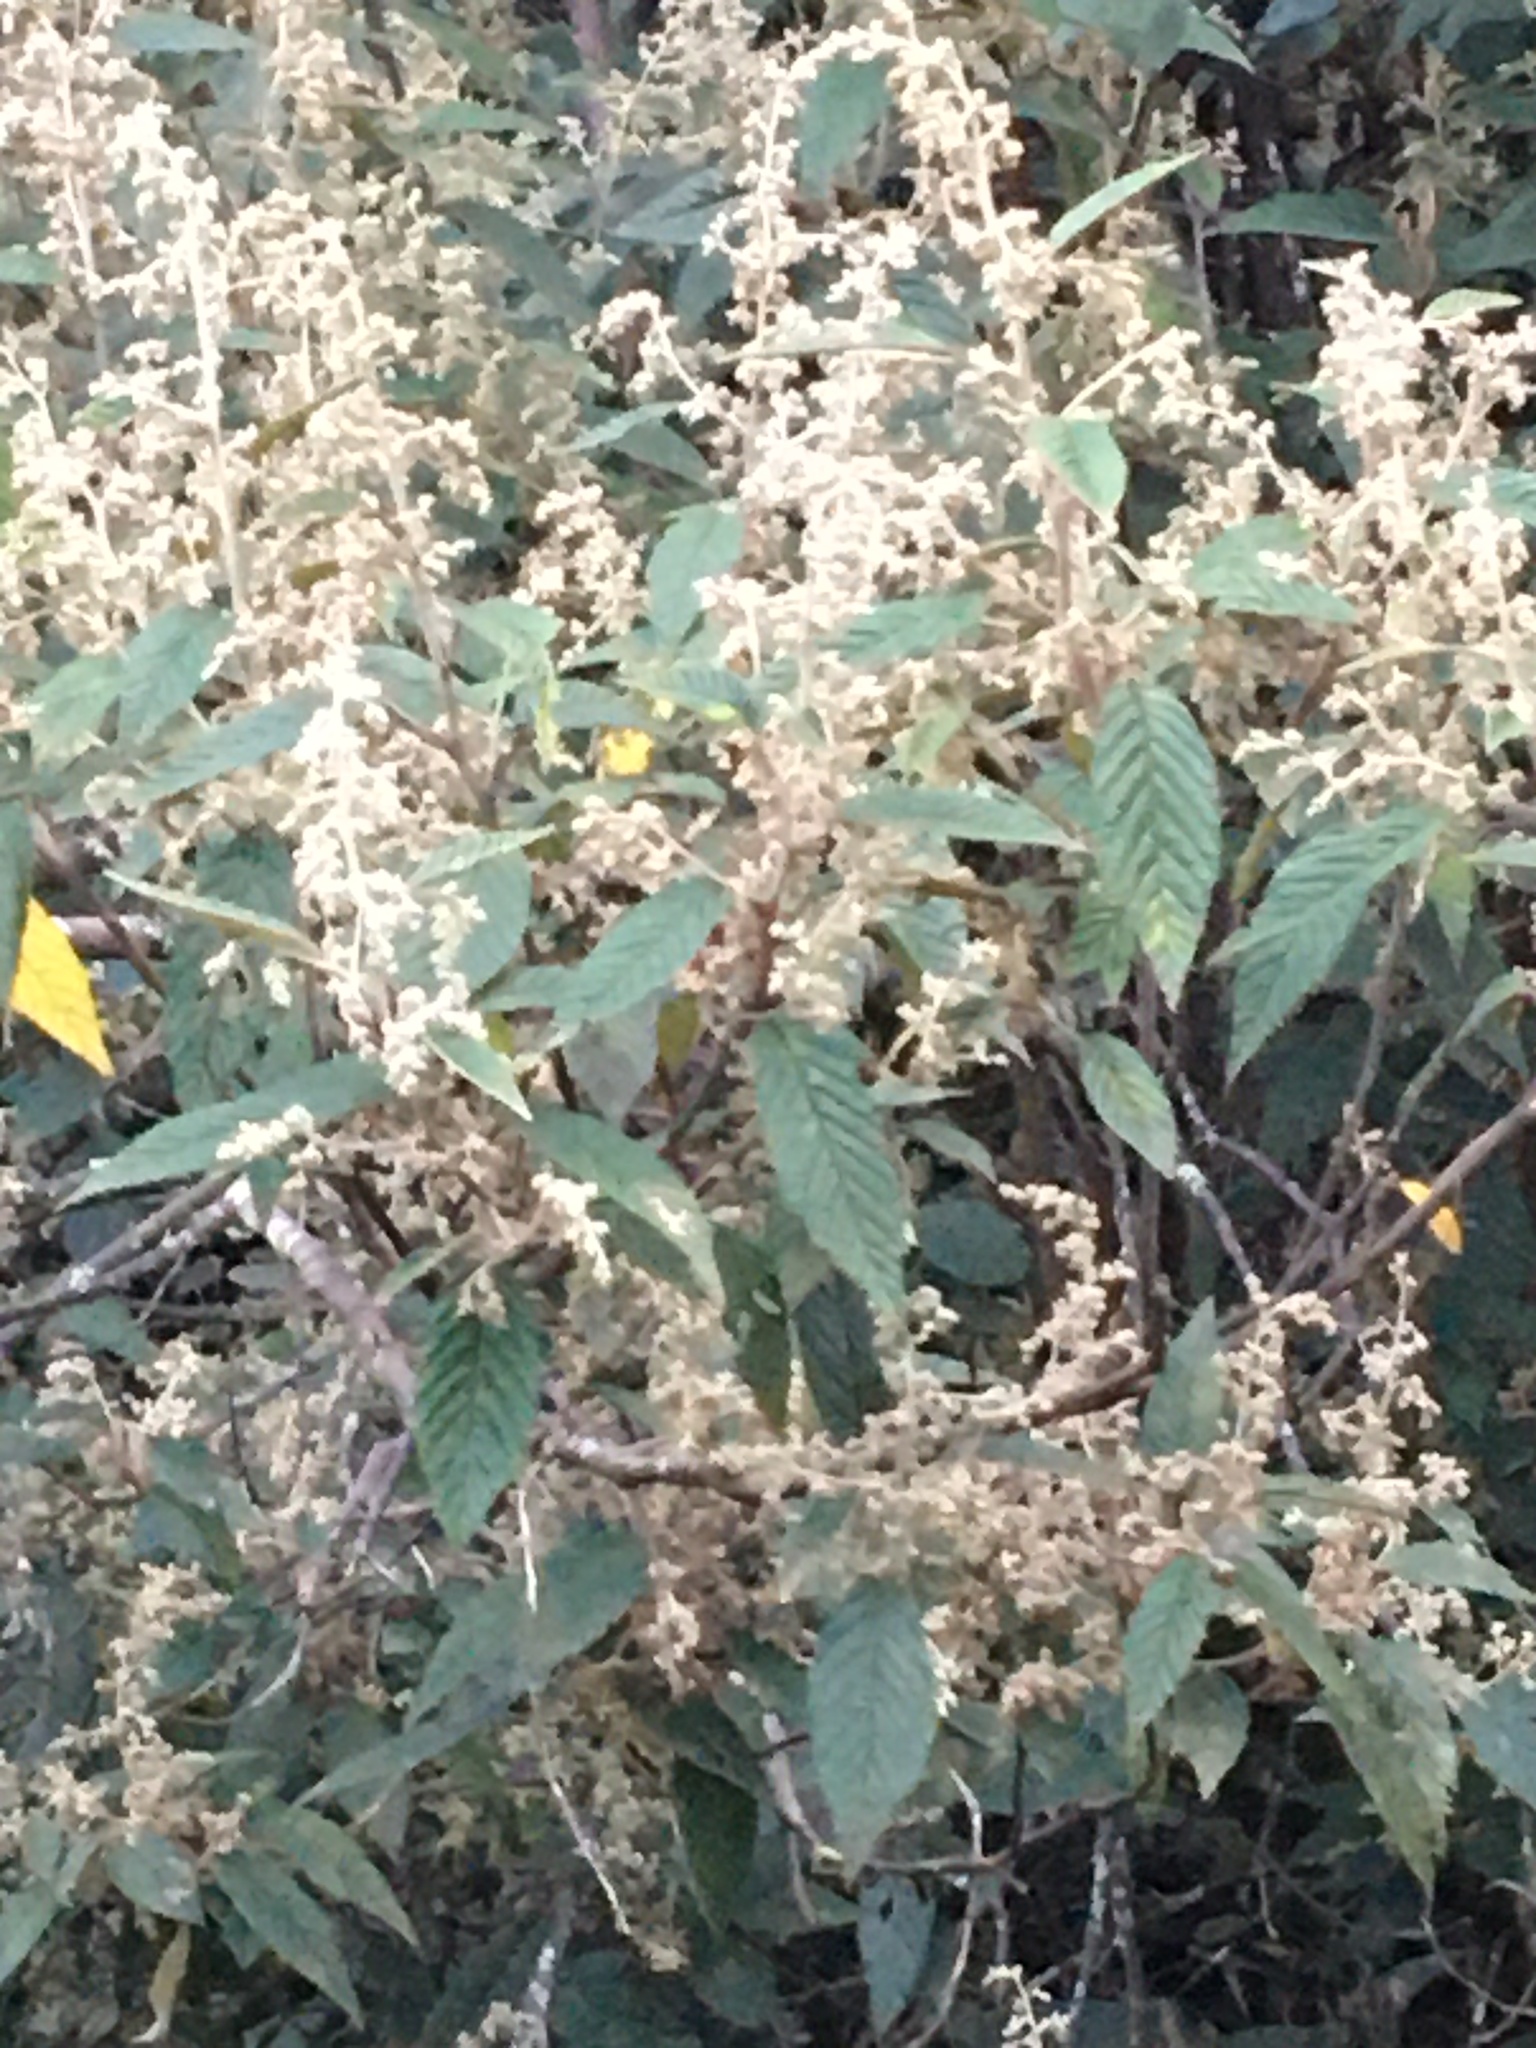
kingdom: Plantae
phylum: Tracheophyta
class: Magnoliopsida
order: Rosales
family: Rhamnaceae
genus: Pomaderris
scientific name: Pomaderris aspera
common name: Hazel pomaderris
